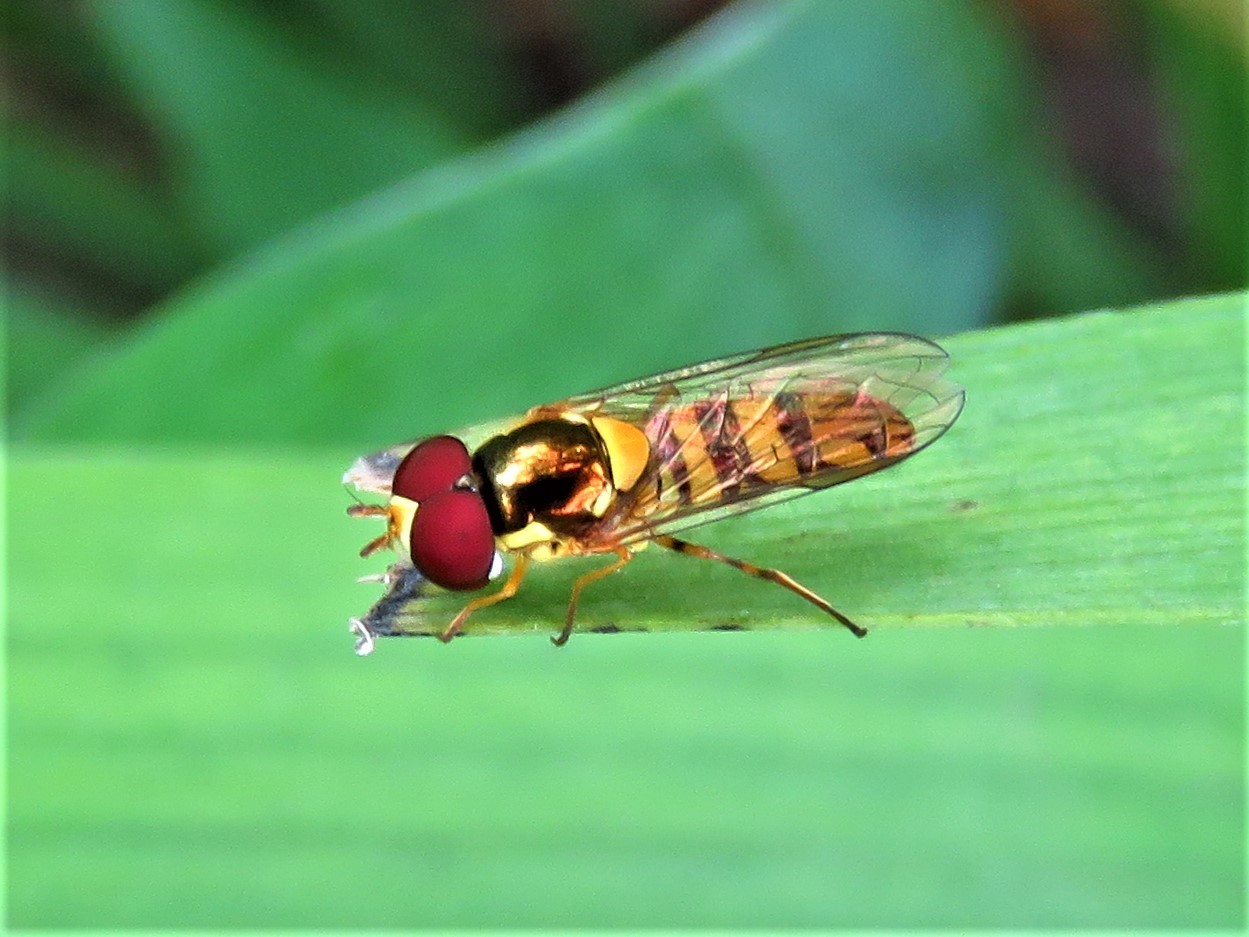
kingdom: Animalia
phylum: Arthropoda
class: Insecta
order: Diptera
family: Syrphidae
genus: Allograpta
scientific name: Allograpta obliqua
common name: Common oblique syrphid
